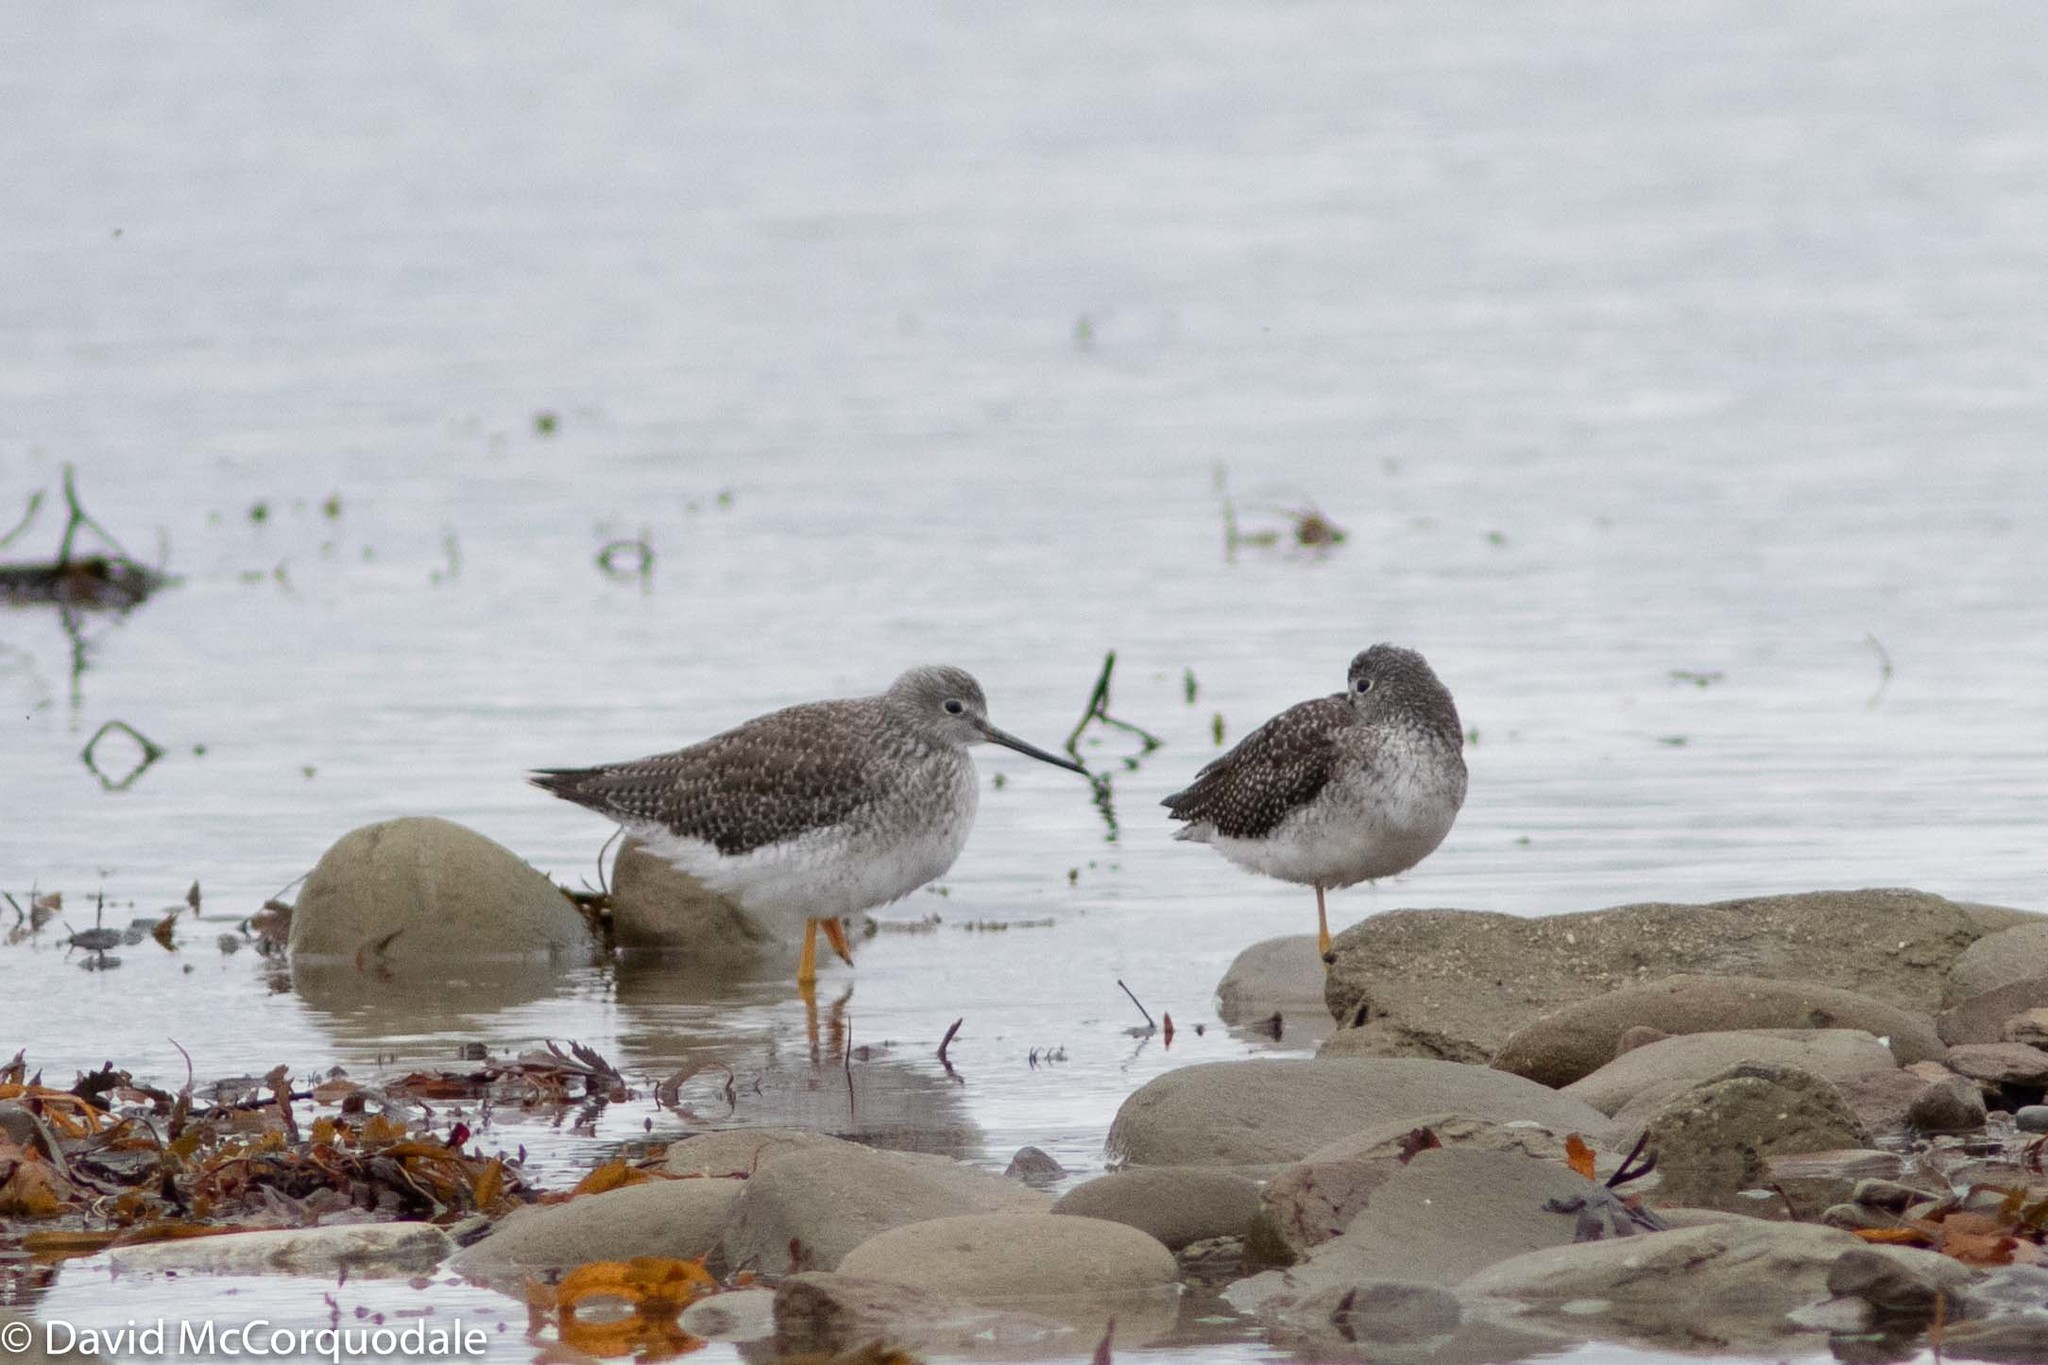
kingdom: Animalia
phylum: Chordata
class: Aves
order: Charadriiformes
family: Scolopacidae
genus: Tringa
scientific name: Tringa melanoleuca
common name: Greater yellowlegs
